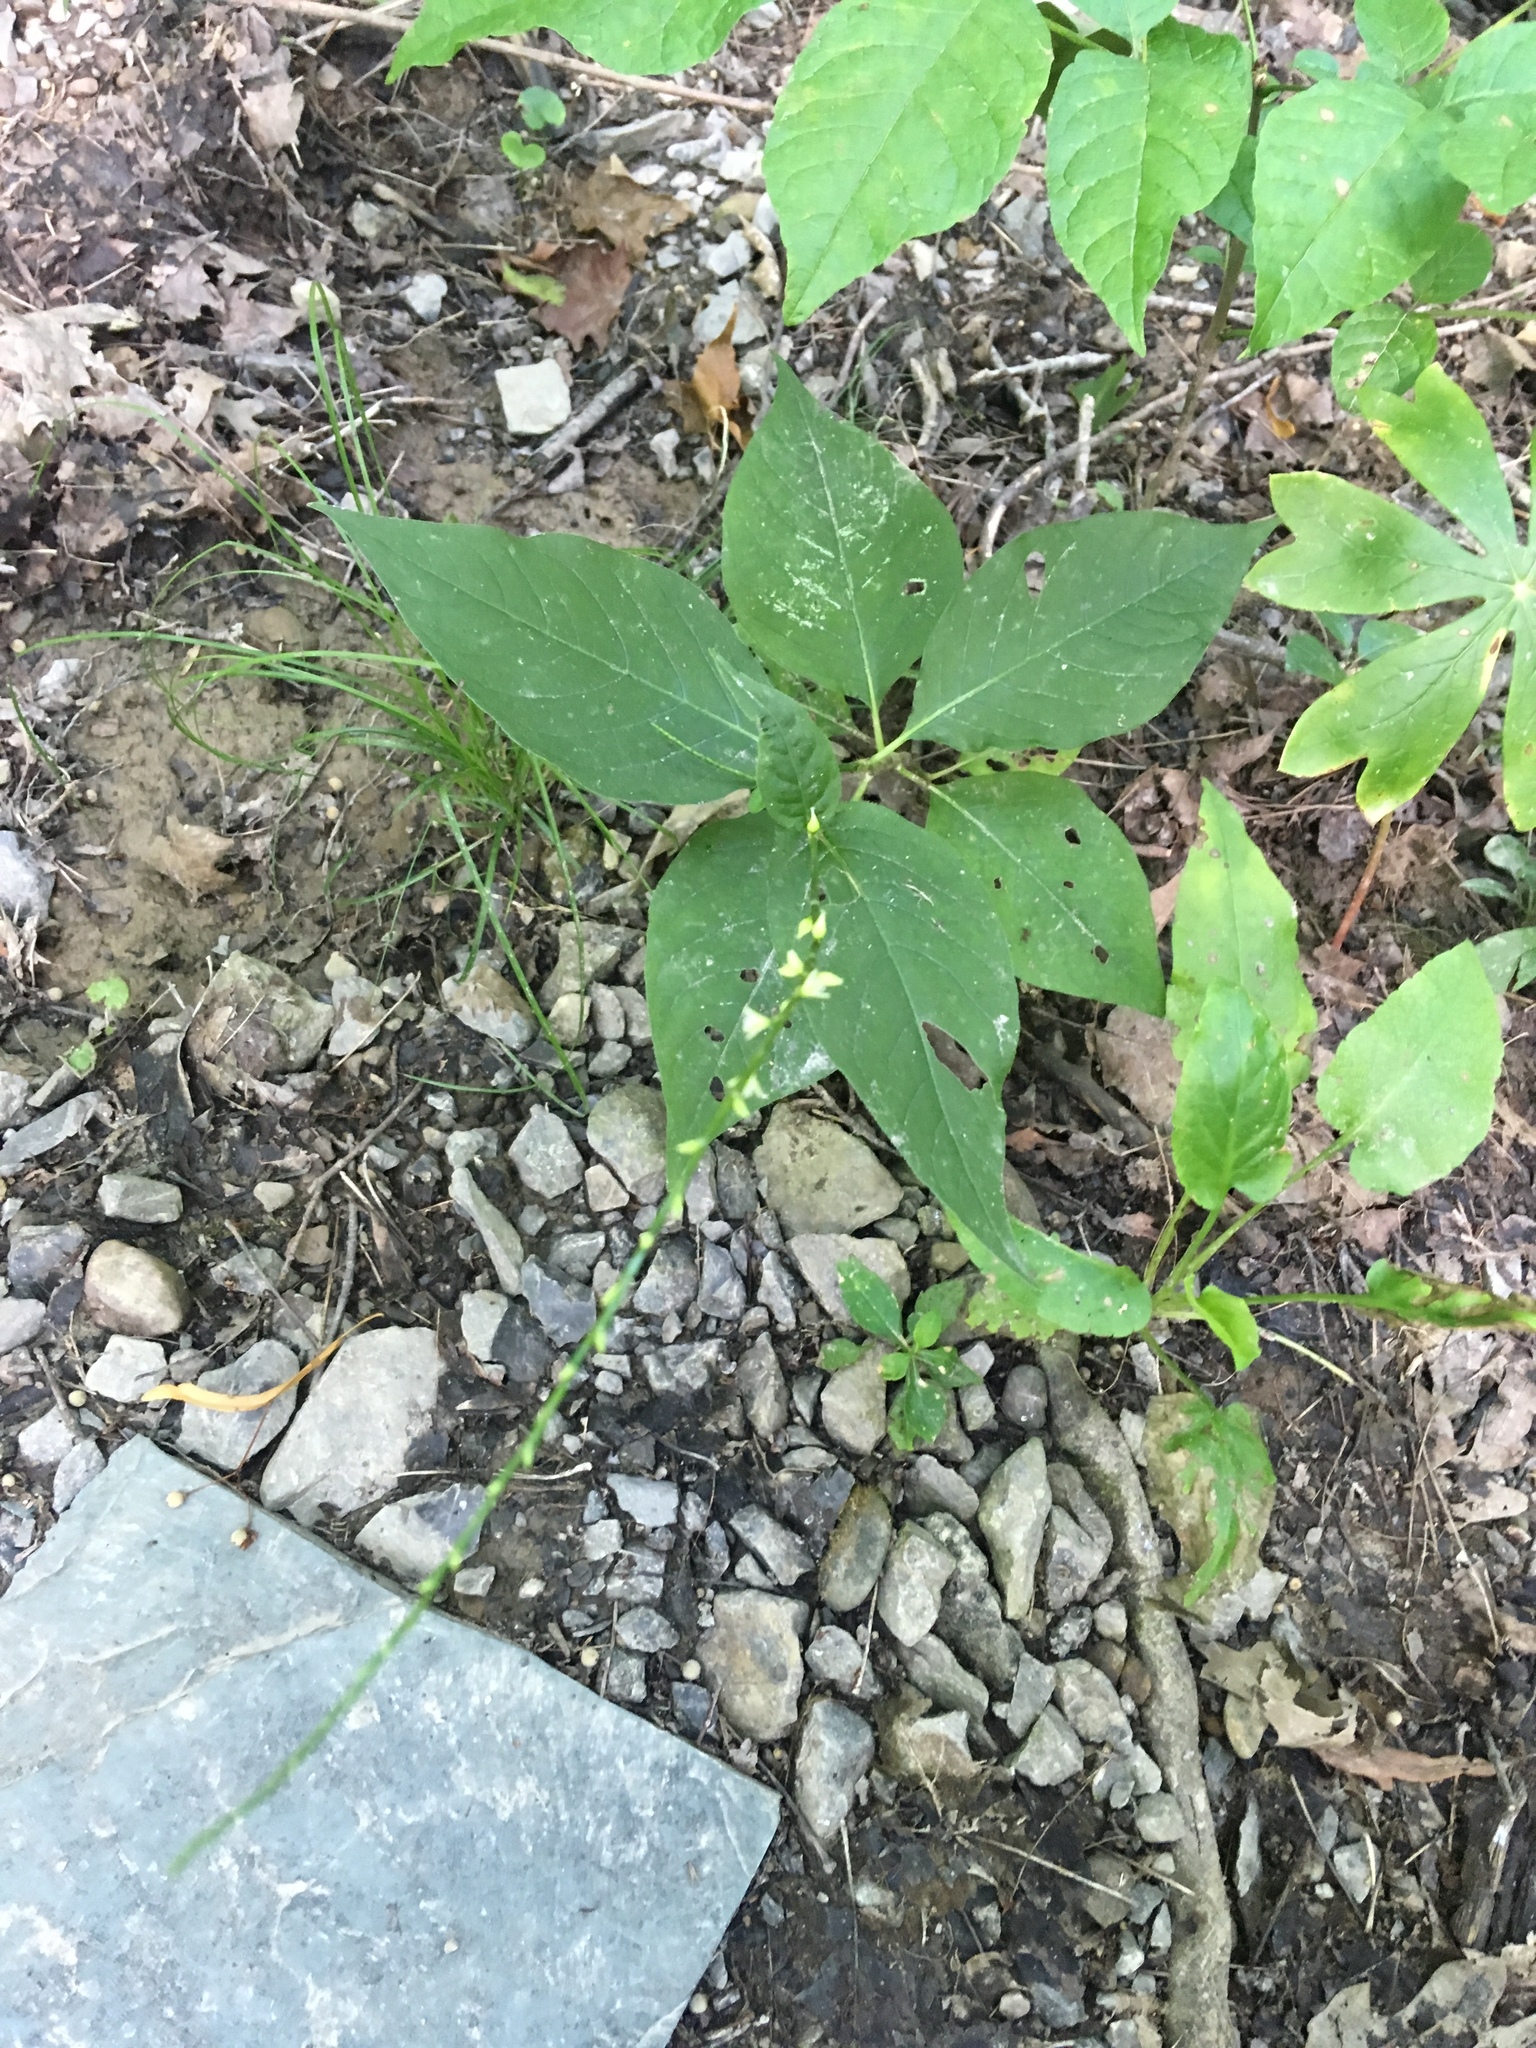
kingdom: Plantae
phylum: Tracheophyta
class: Magnoliopsida
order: Caryophyllales
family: Polygonaceae
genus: Persicaria
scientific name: Persicaria virginiana
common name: Jumpseed
